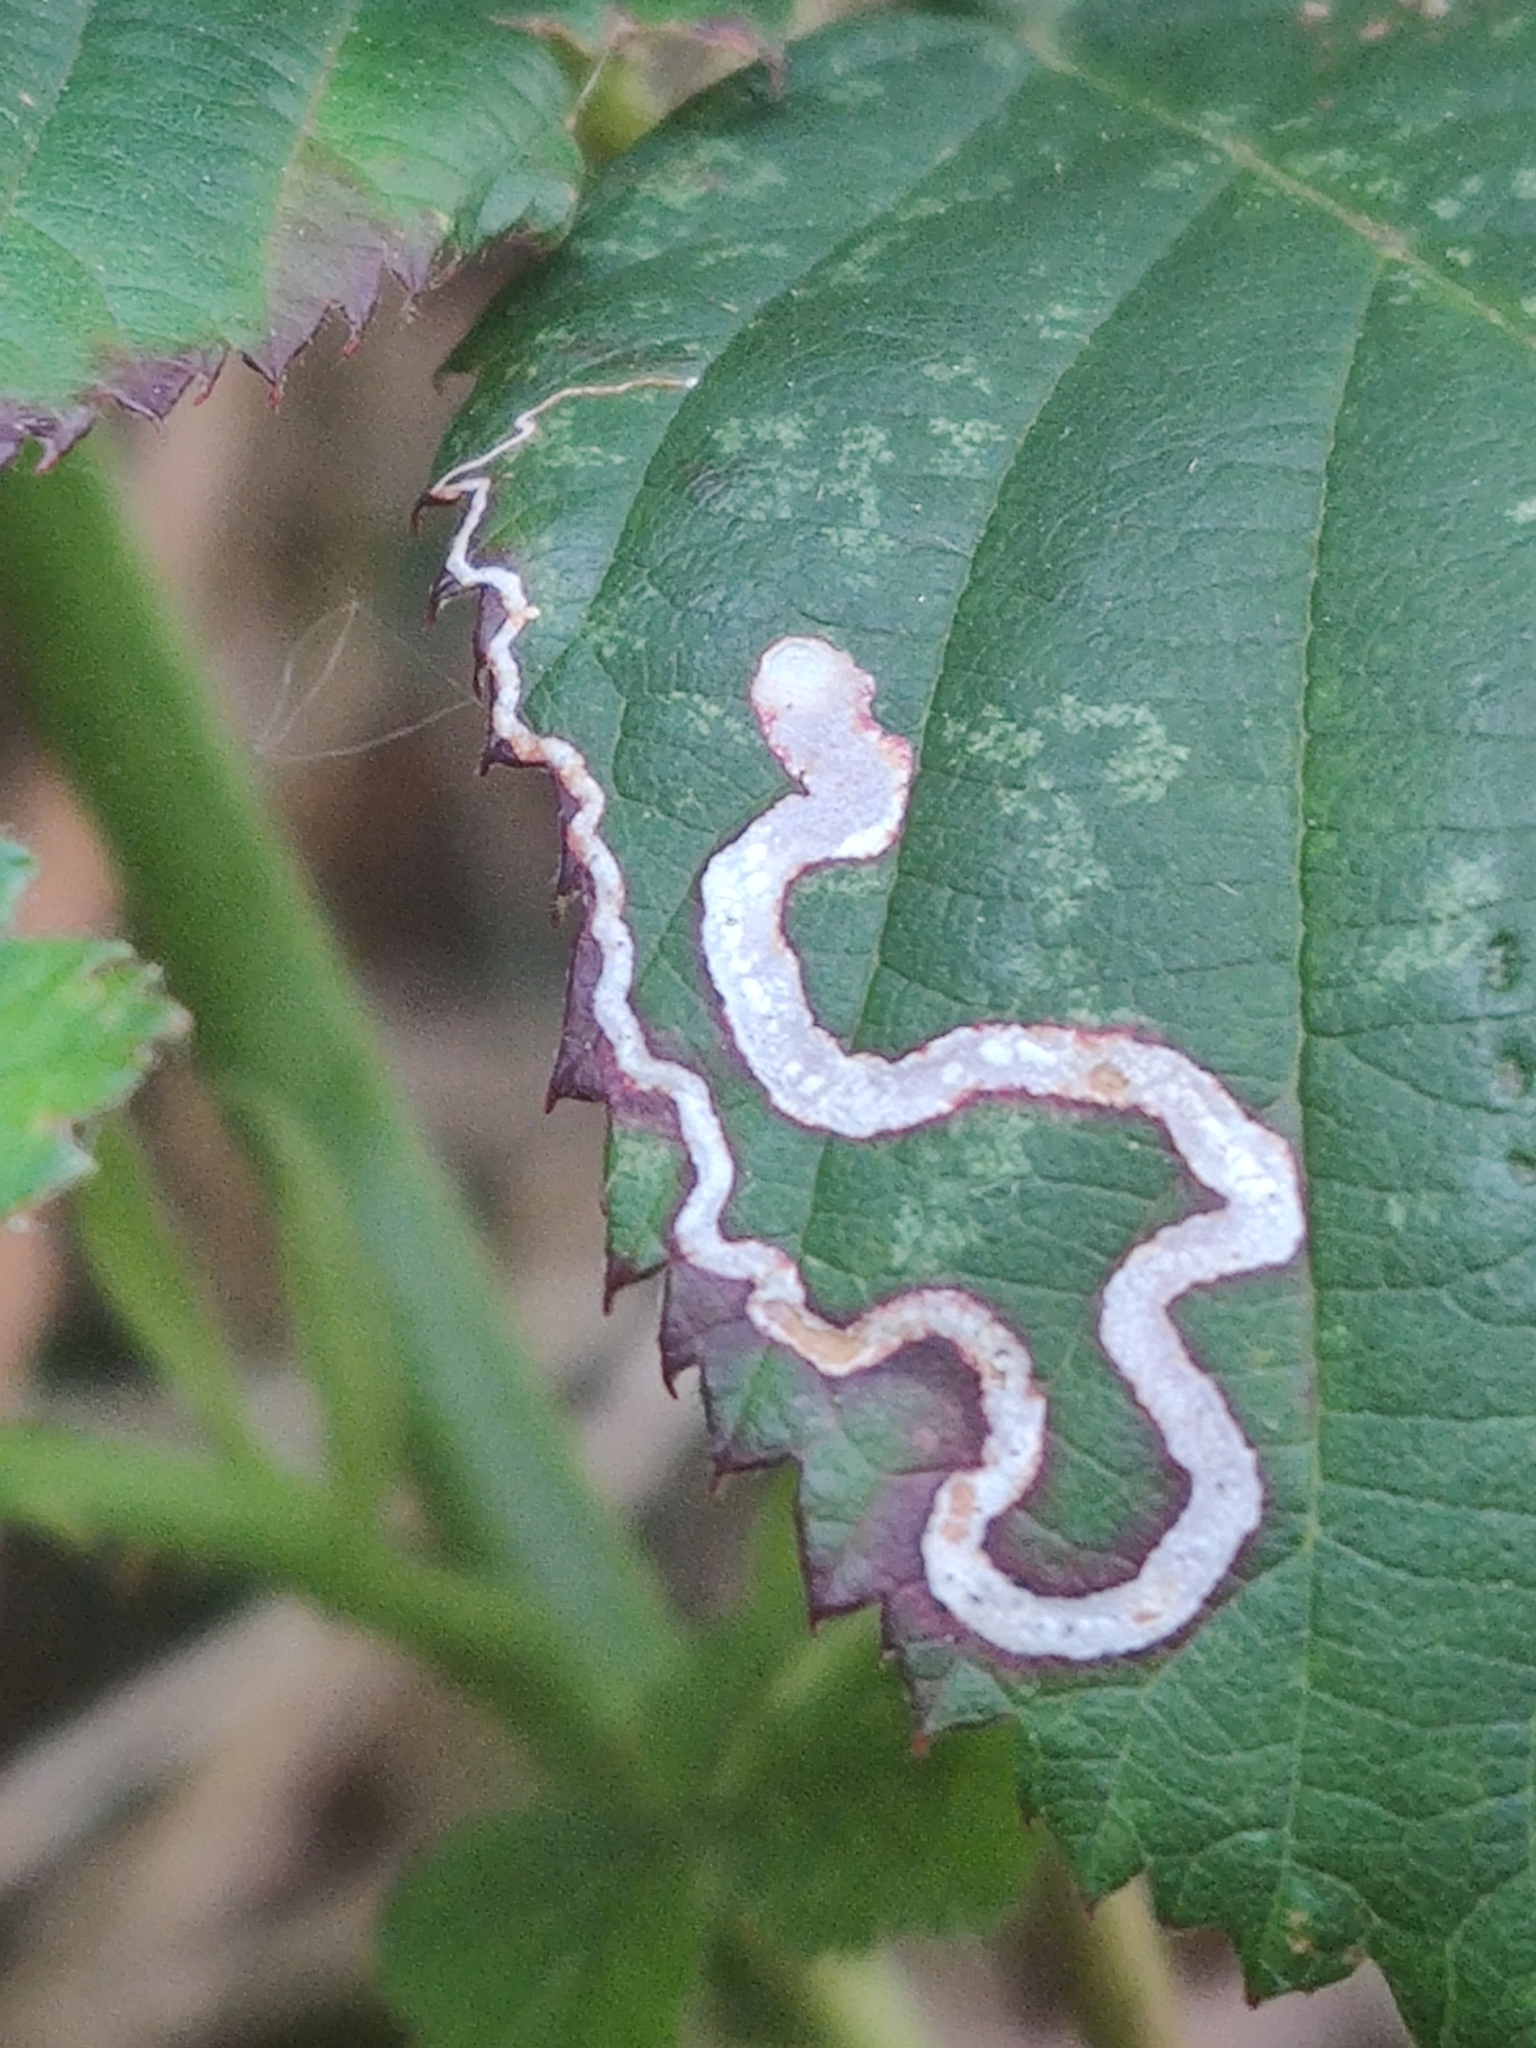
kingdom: Animalia
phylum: Arthropoda
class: Insecta
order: Lepidoptera
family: Nepticulidae
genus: Stigmella
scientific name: Stigmella aurella
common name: Golden pigmy
